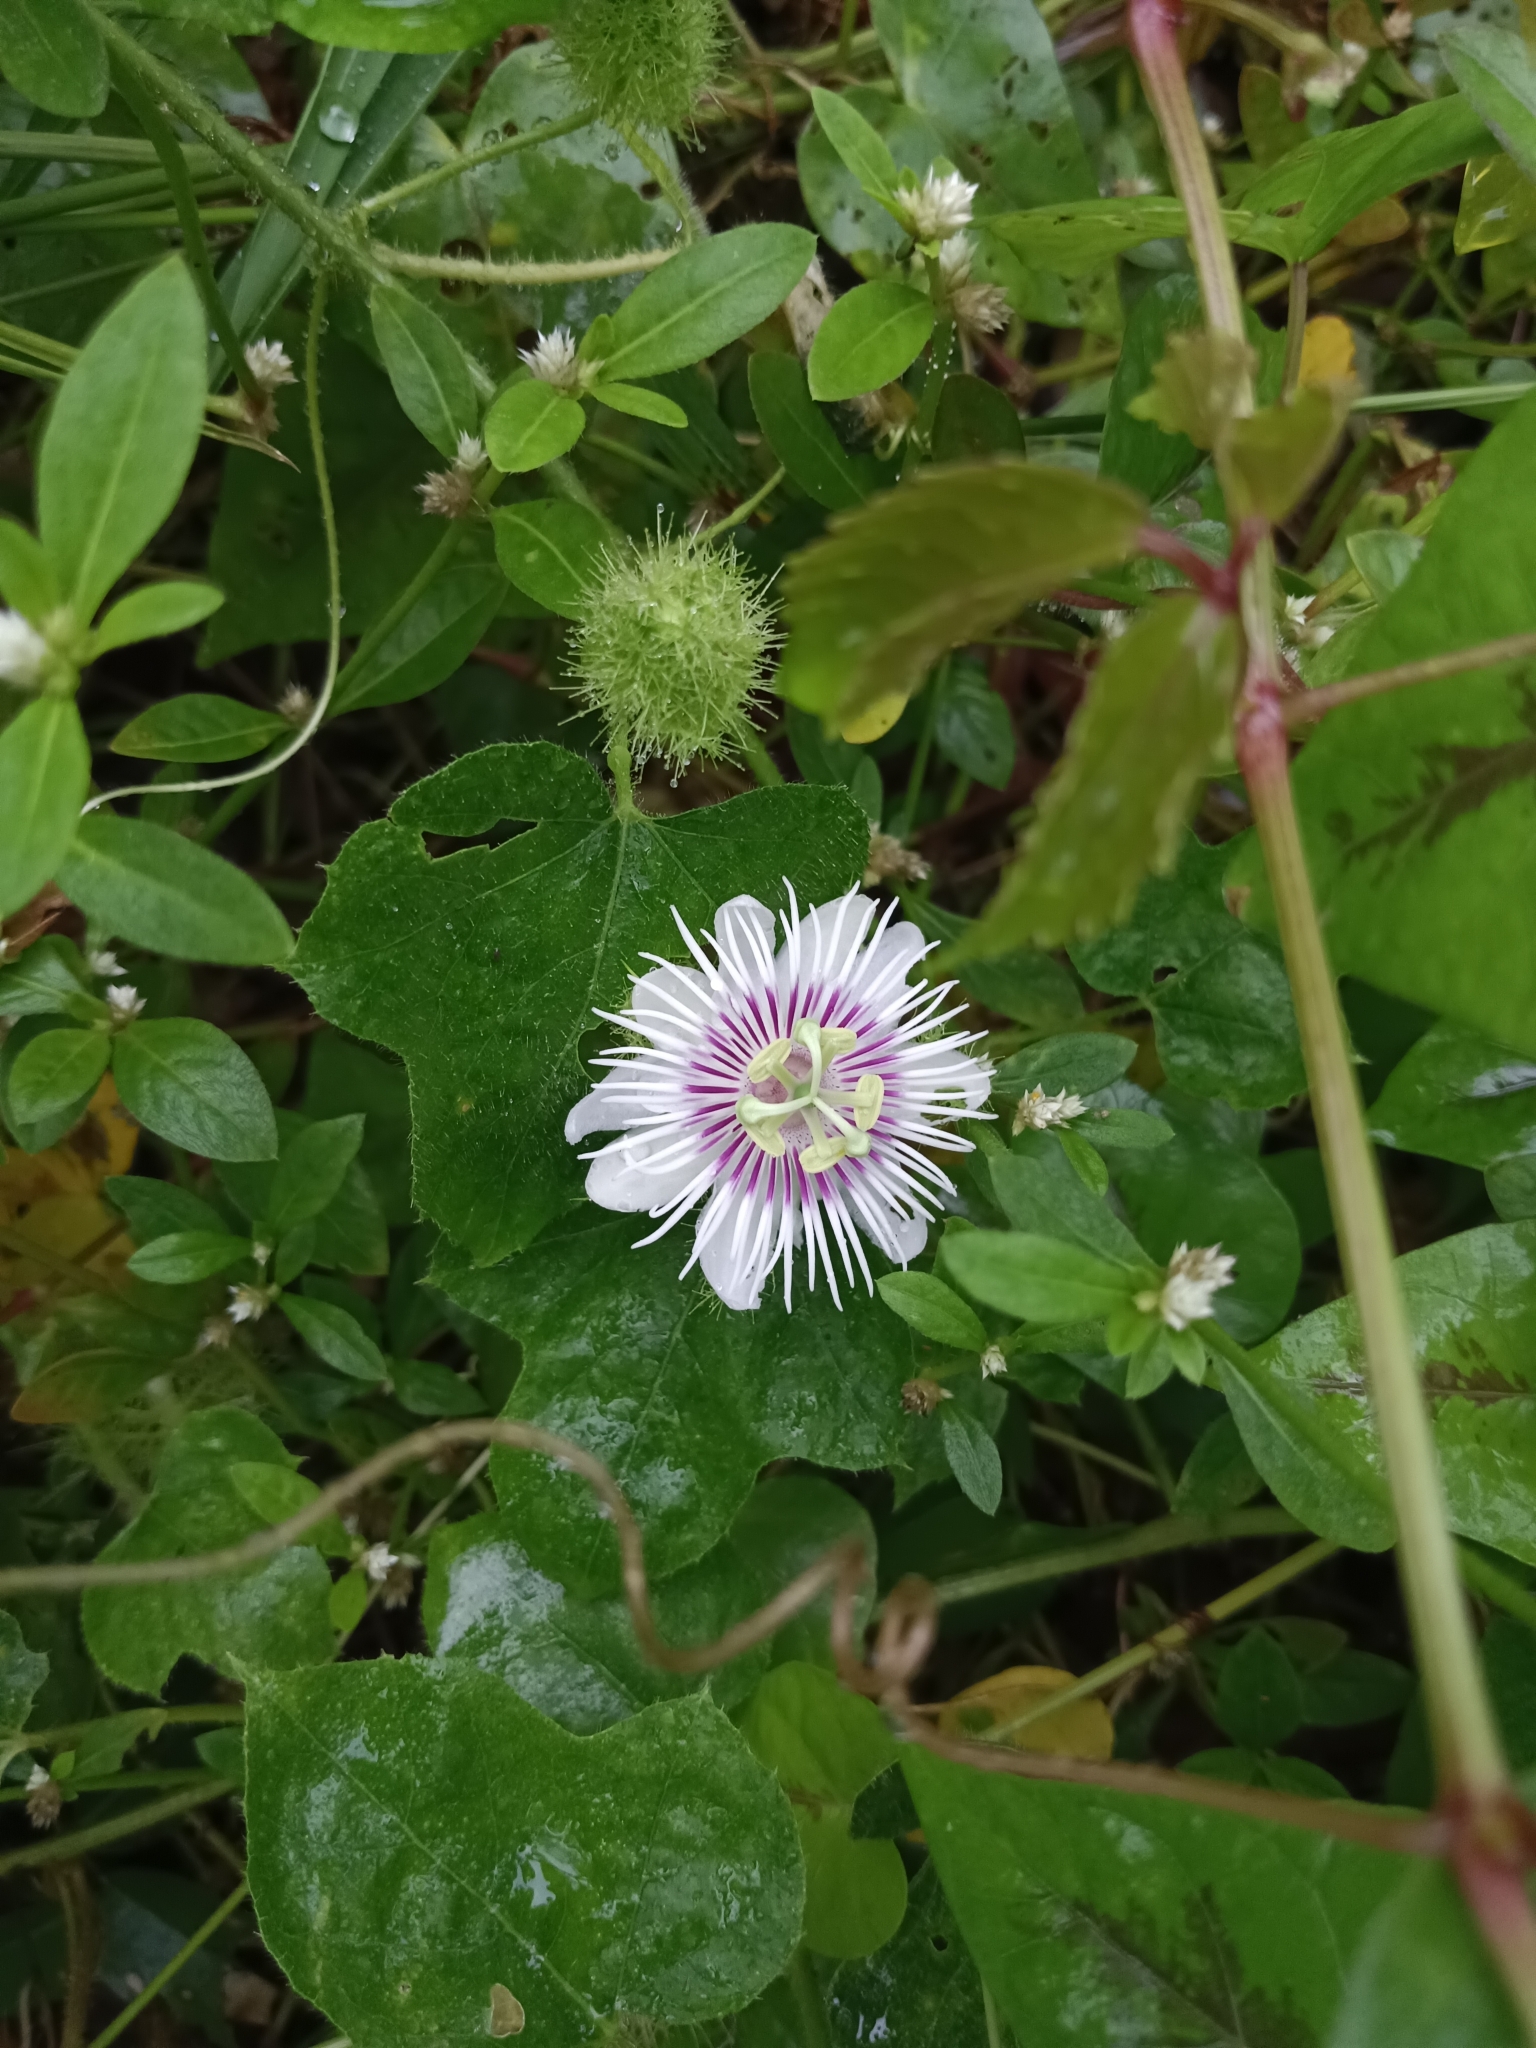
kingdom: Plantae
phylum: Tracheophyta
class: Magnoliopsida
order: Malpighiales
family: Passifloraceae
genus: Passiflora
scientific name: Passiflora vesicaria
